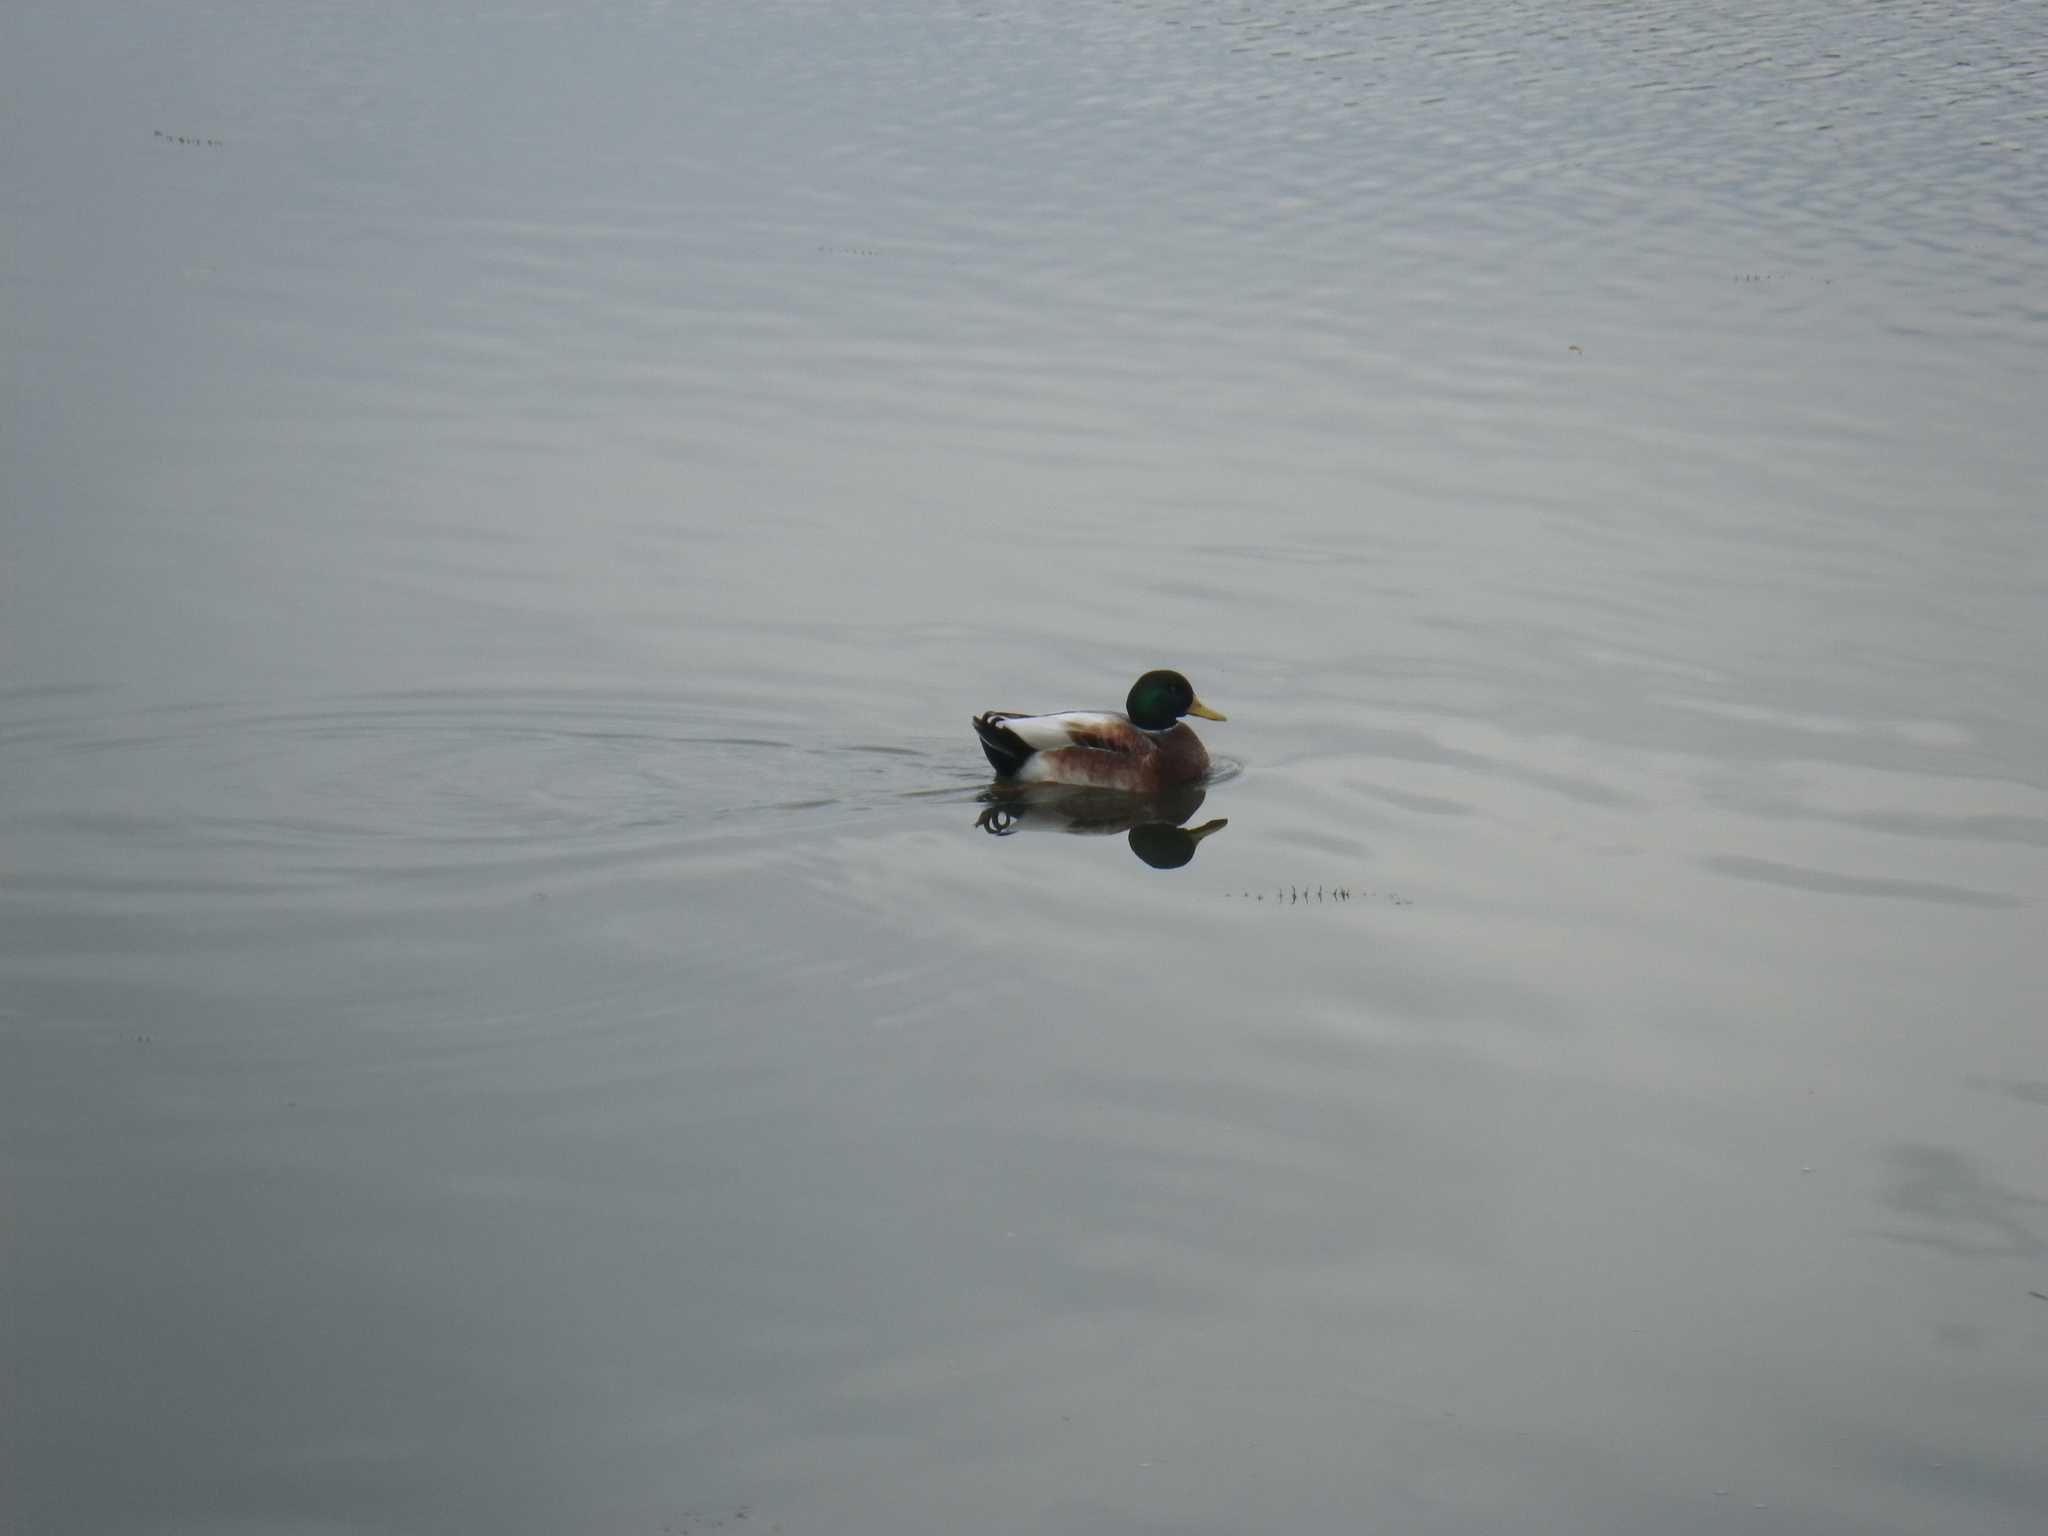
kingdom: Animalia
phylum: Chordata
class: Aves
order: Anseriformes
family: Anatidae
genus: Anas
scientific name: Anas platyrhynchos
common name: Mallard
